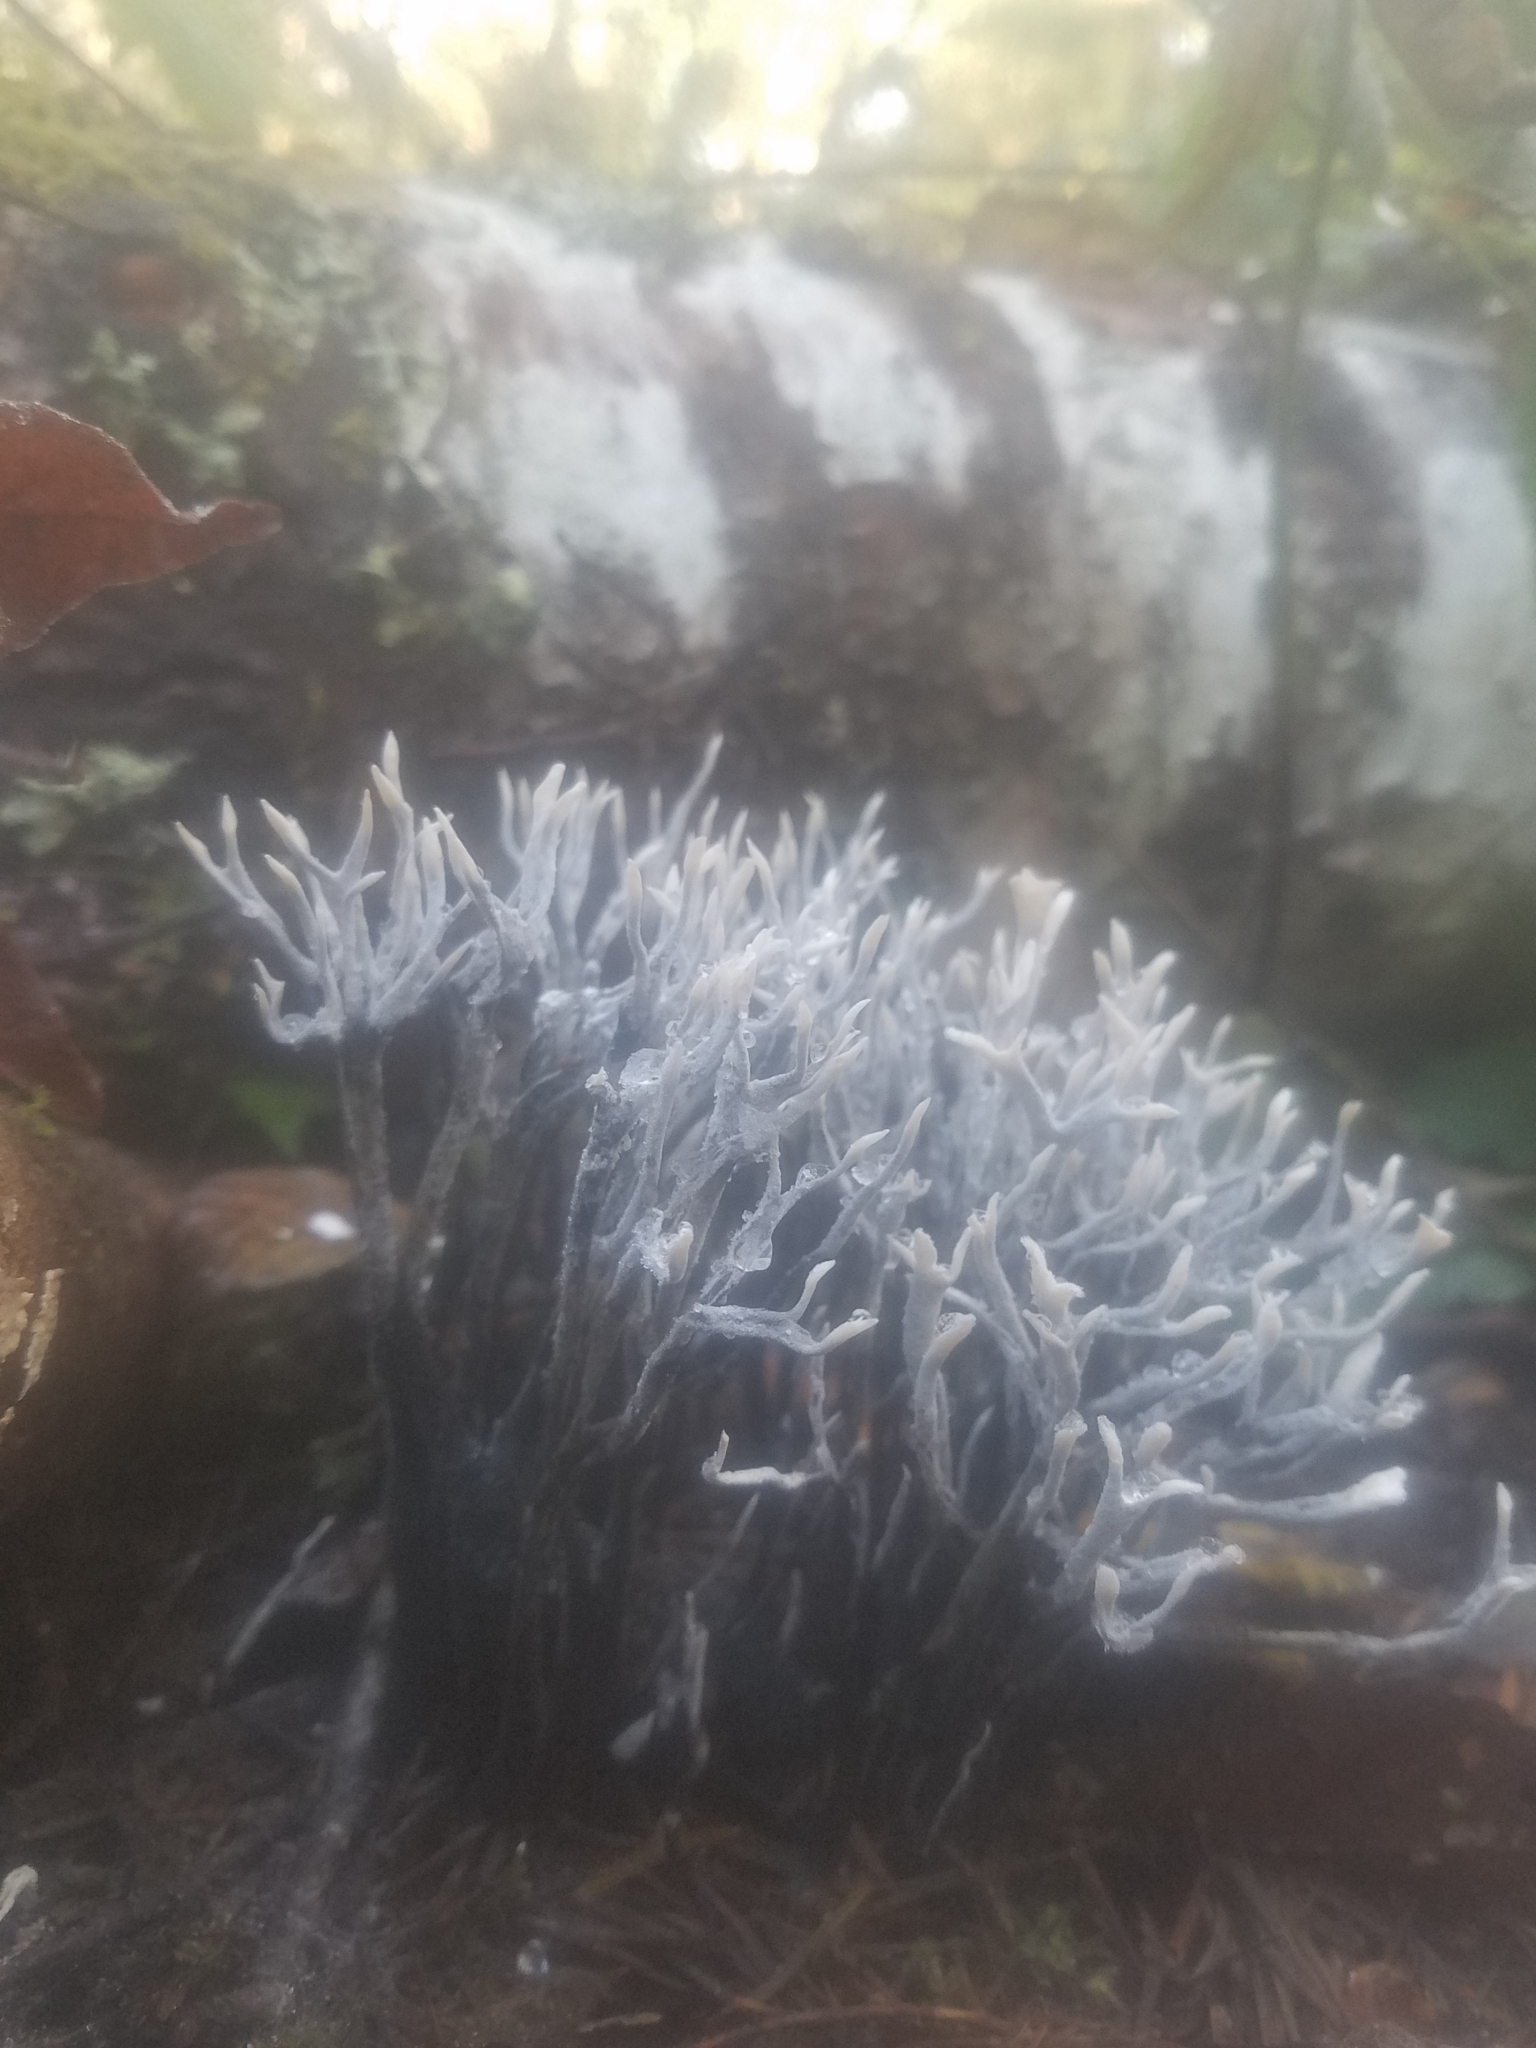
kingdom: Fungi
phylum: Ascomycota
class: Sordariomycetes
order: Xylariales
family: Xylariaceae
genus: Xylaria
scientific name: Xylaria hypoxylon
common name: Candle-snuff fungus
